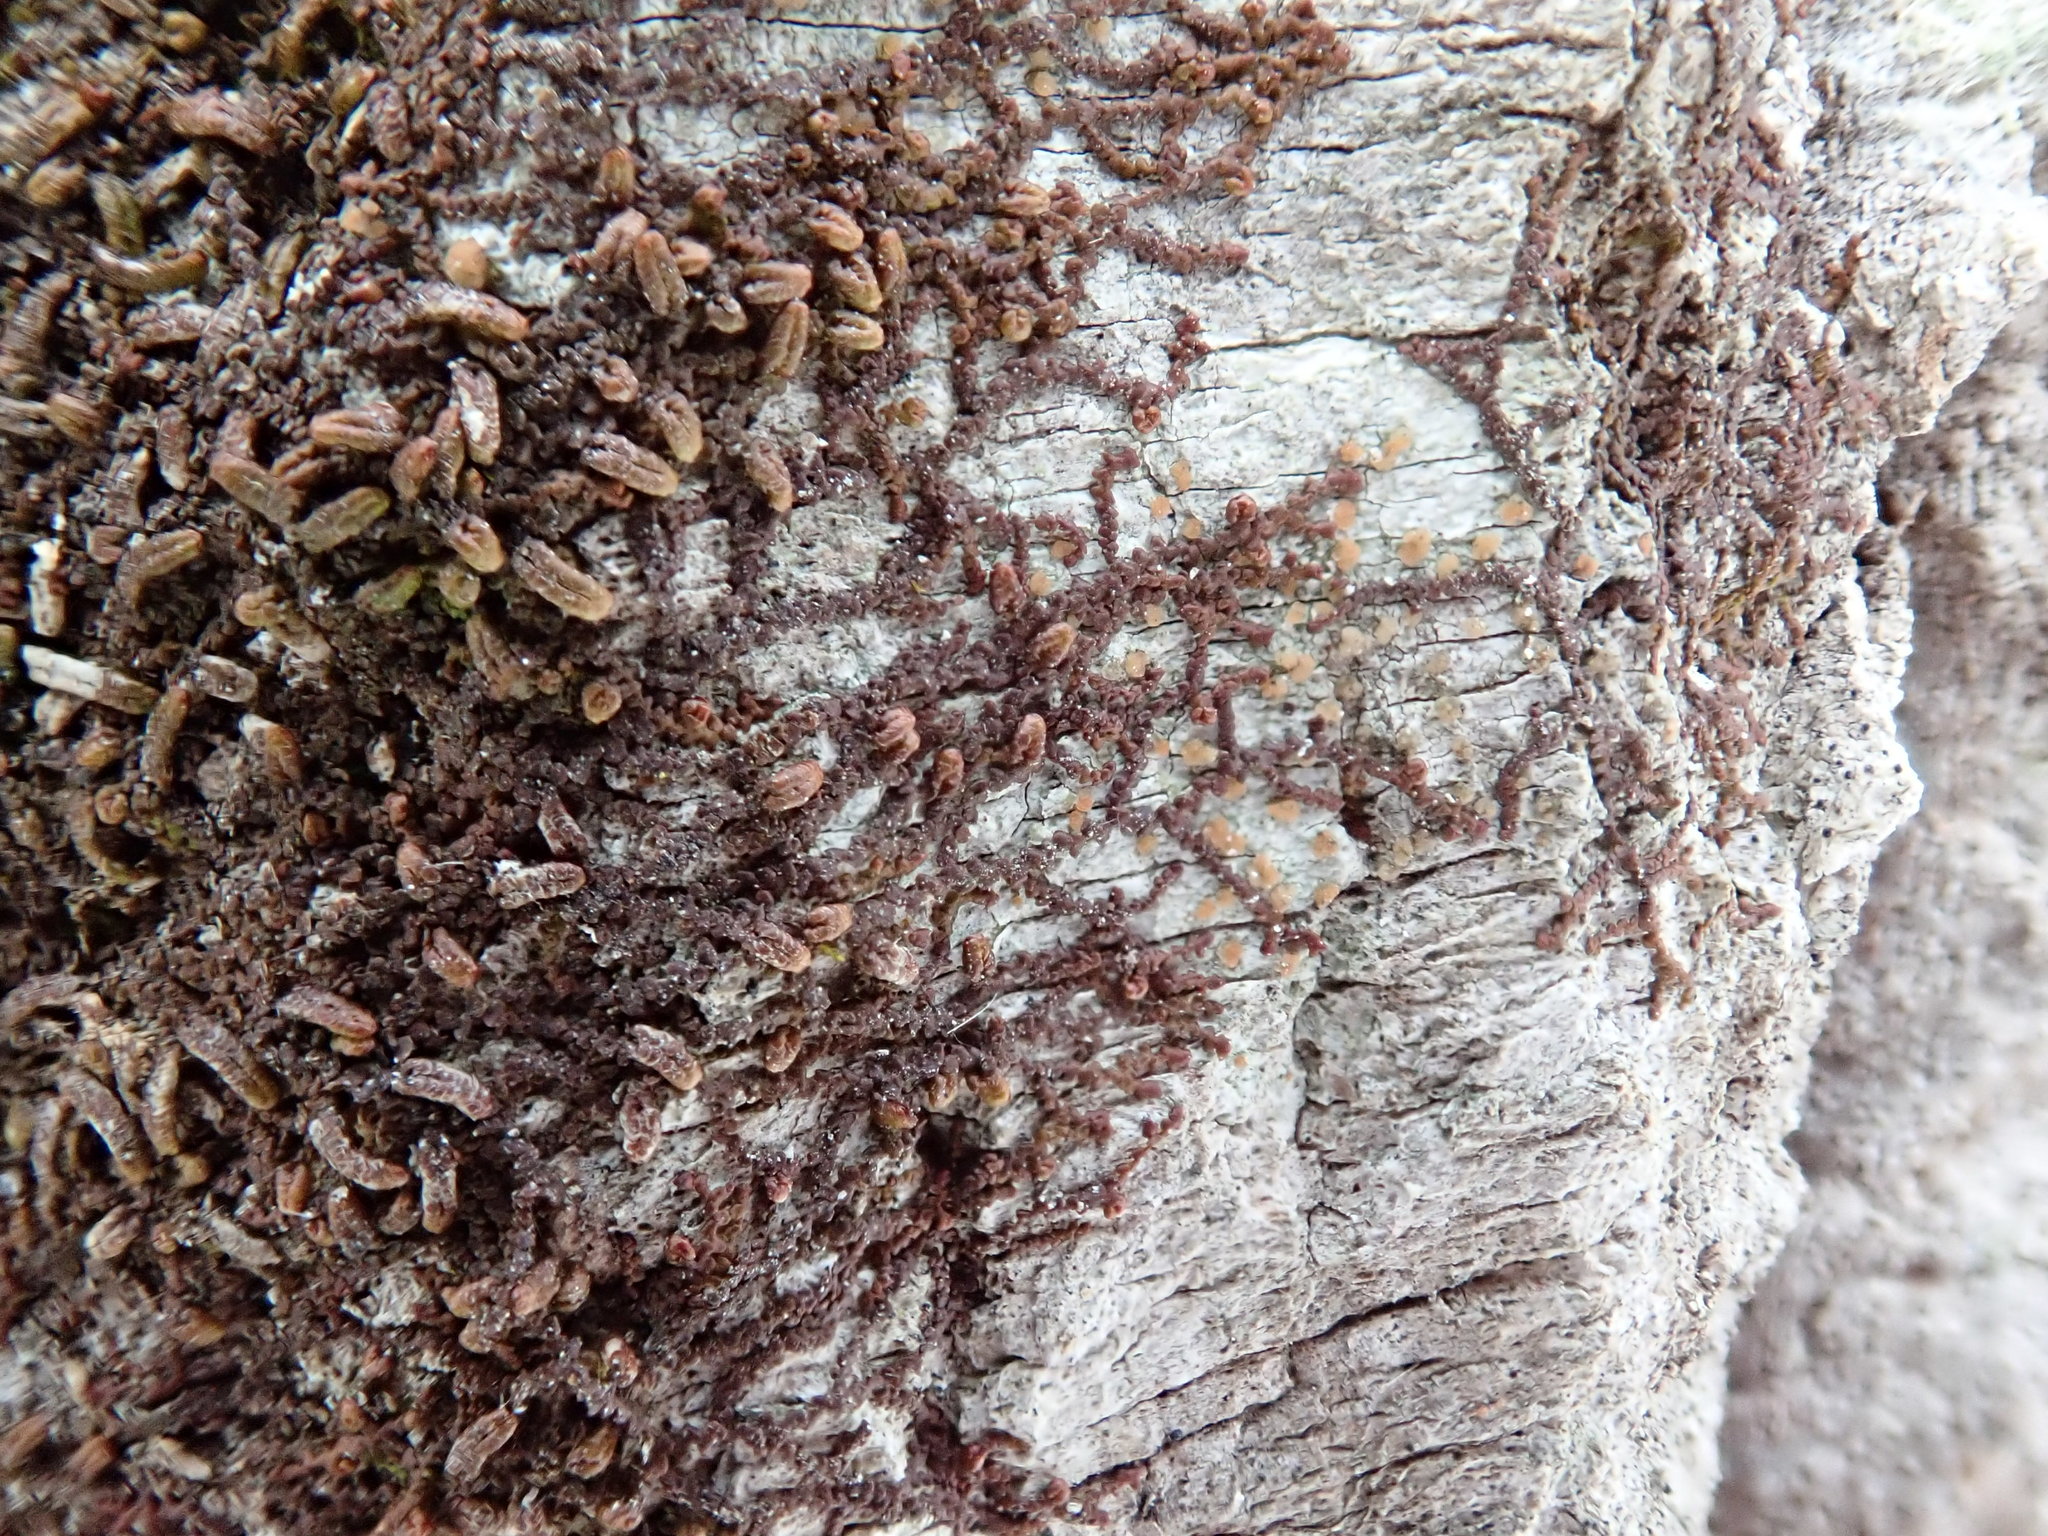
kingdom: Plantae
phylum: Marchantiophyta
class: Jungermanniopsida
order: Porellales
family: Frullaniaceae
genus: Frullania
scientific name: Frullania
